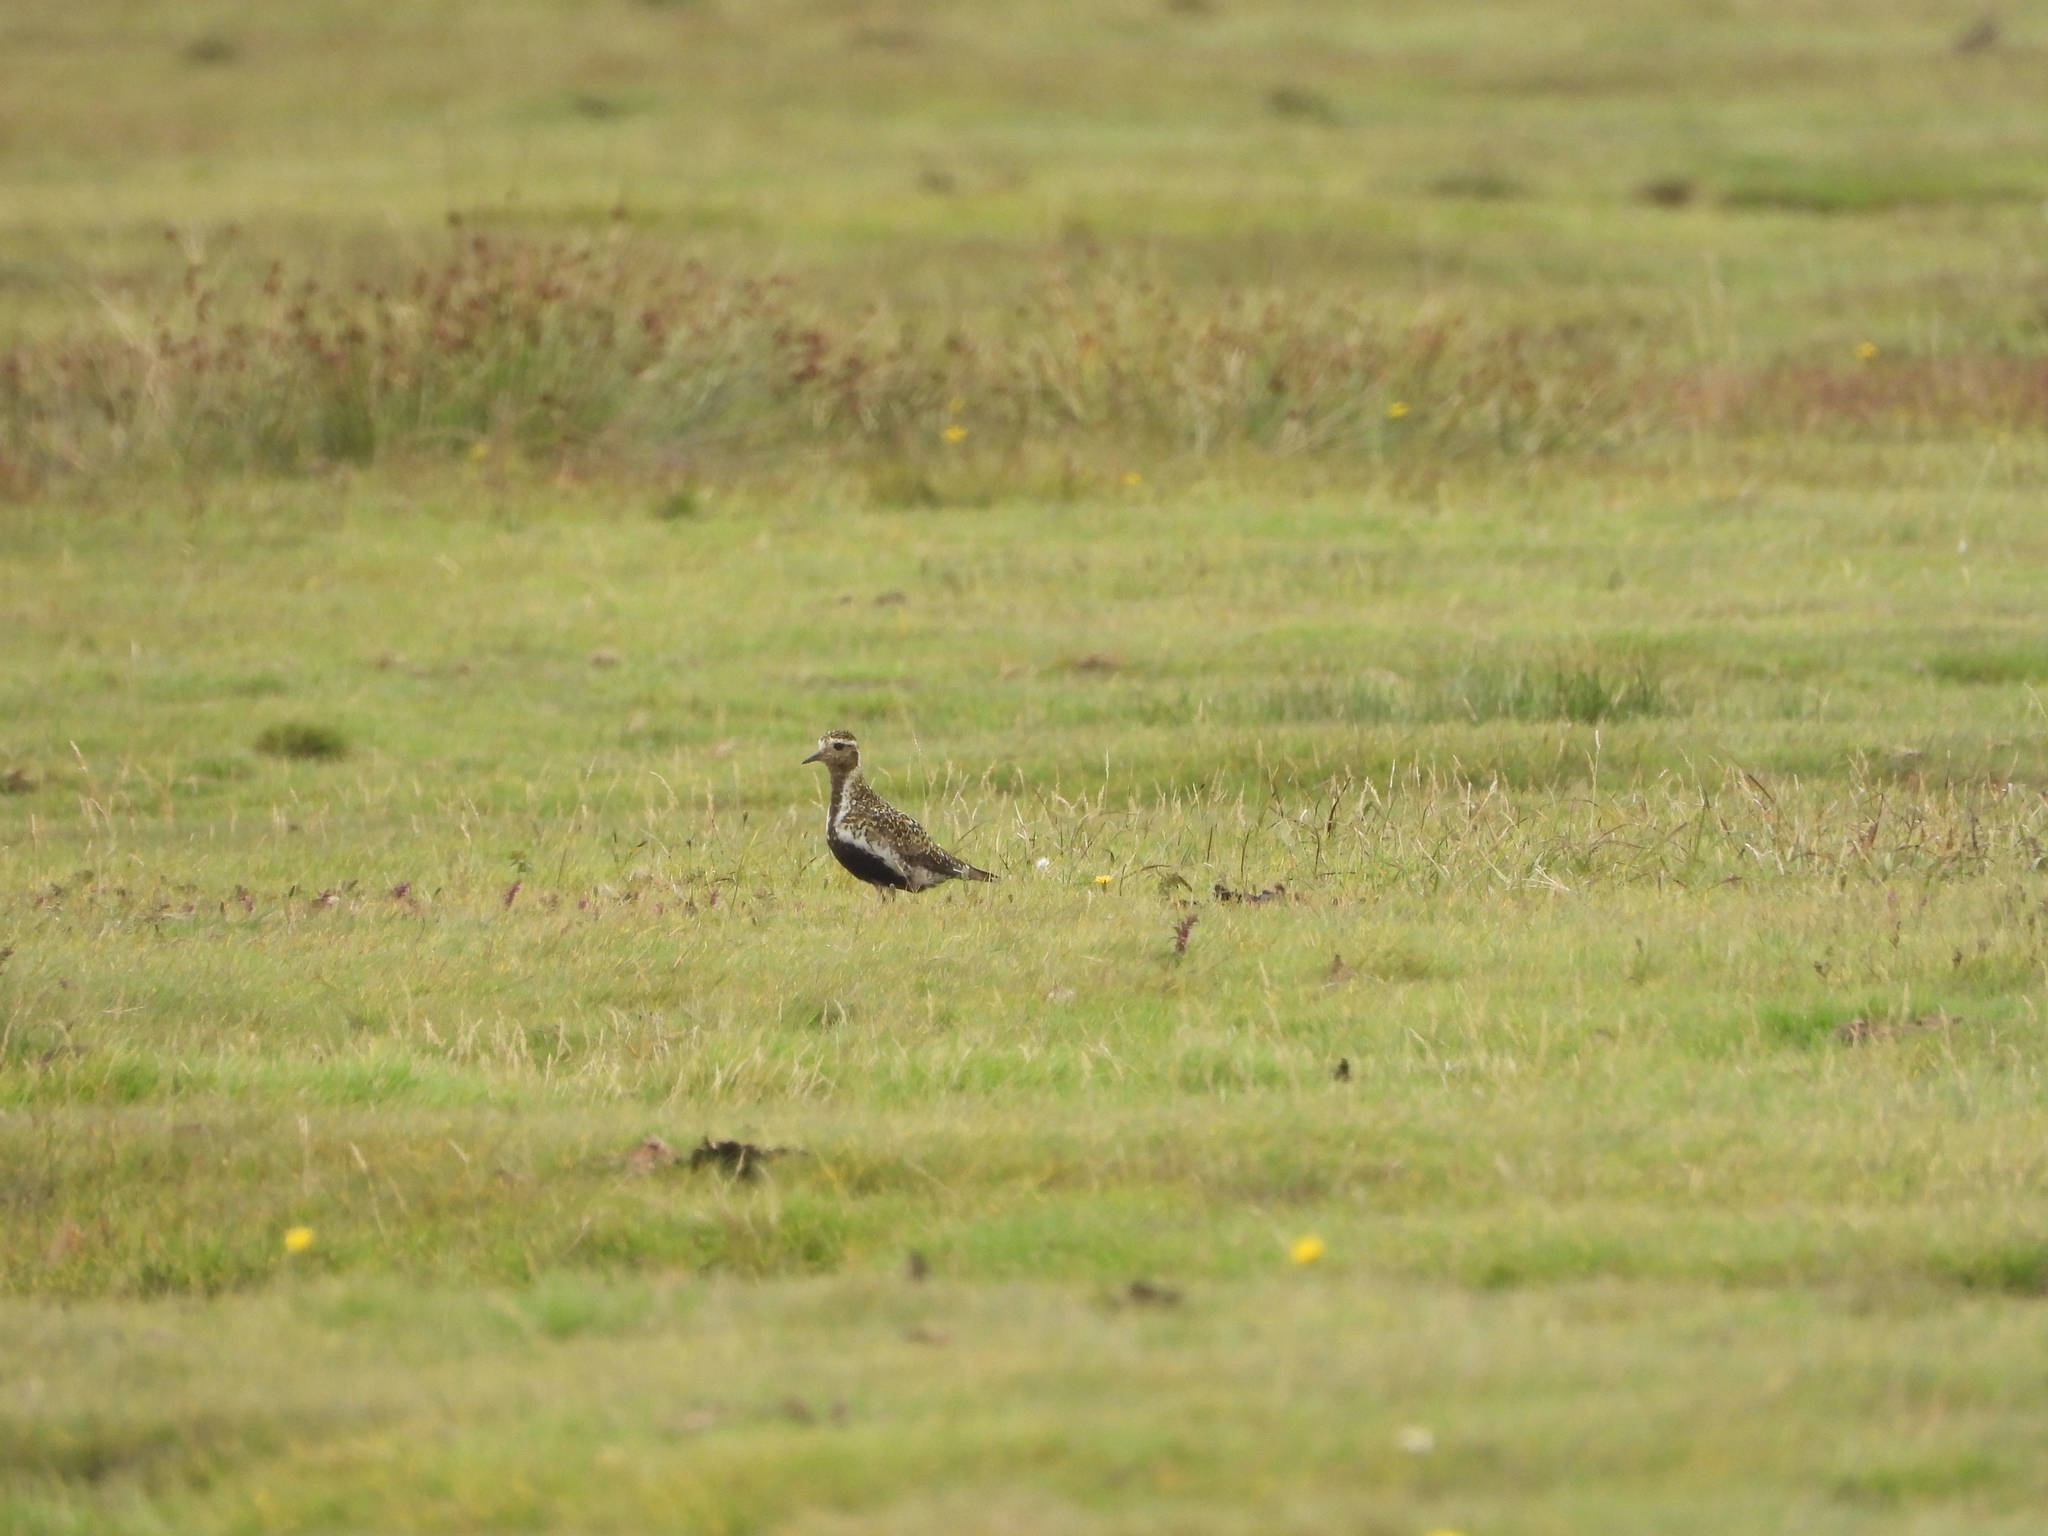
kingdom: Animalia
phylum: Chordata
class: Aves
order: Charadriiformes
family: Charadriidae
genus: Pluvialis
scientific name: Pluvialis apricaria
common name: European golden plover
